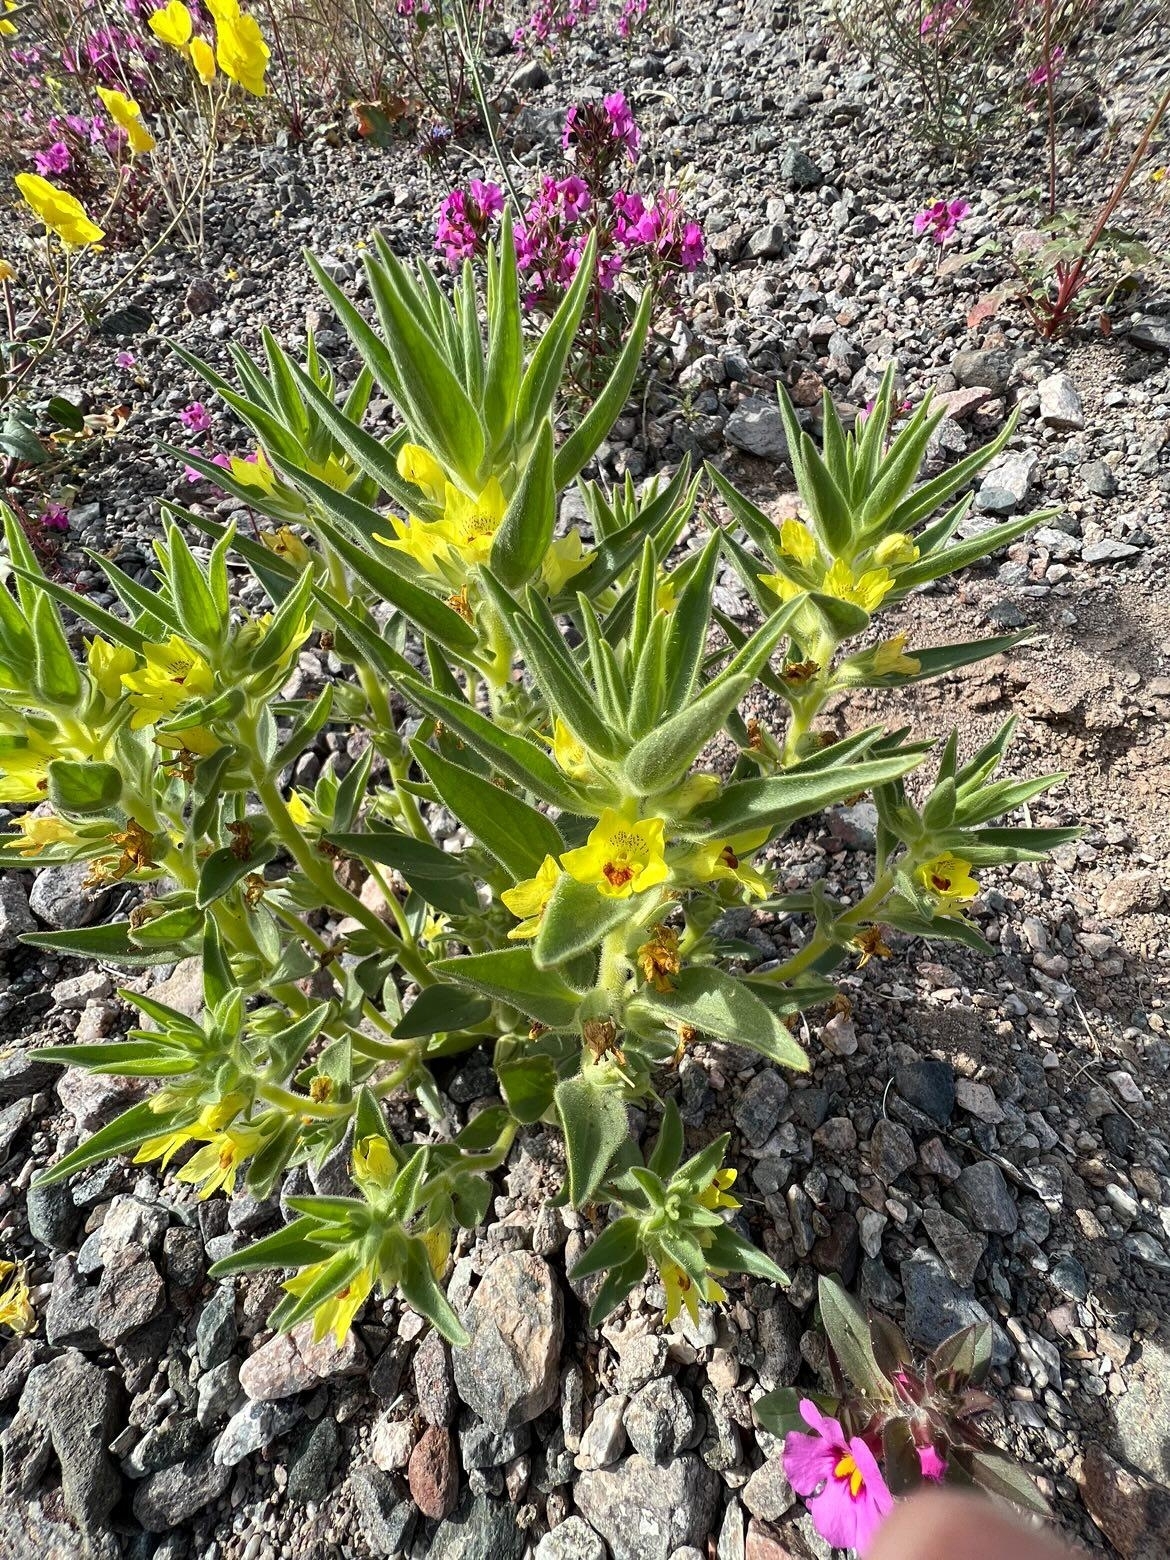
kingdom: Plantae
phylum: Tracheophyta
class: Magnoliopsida
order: Lamiales
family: Plantaginaceae
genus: Mohavea
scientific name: Mohavea breviflora
